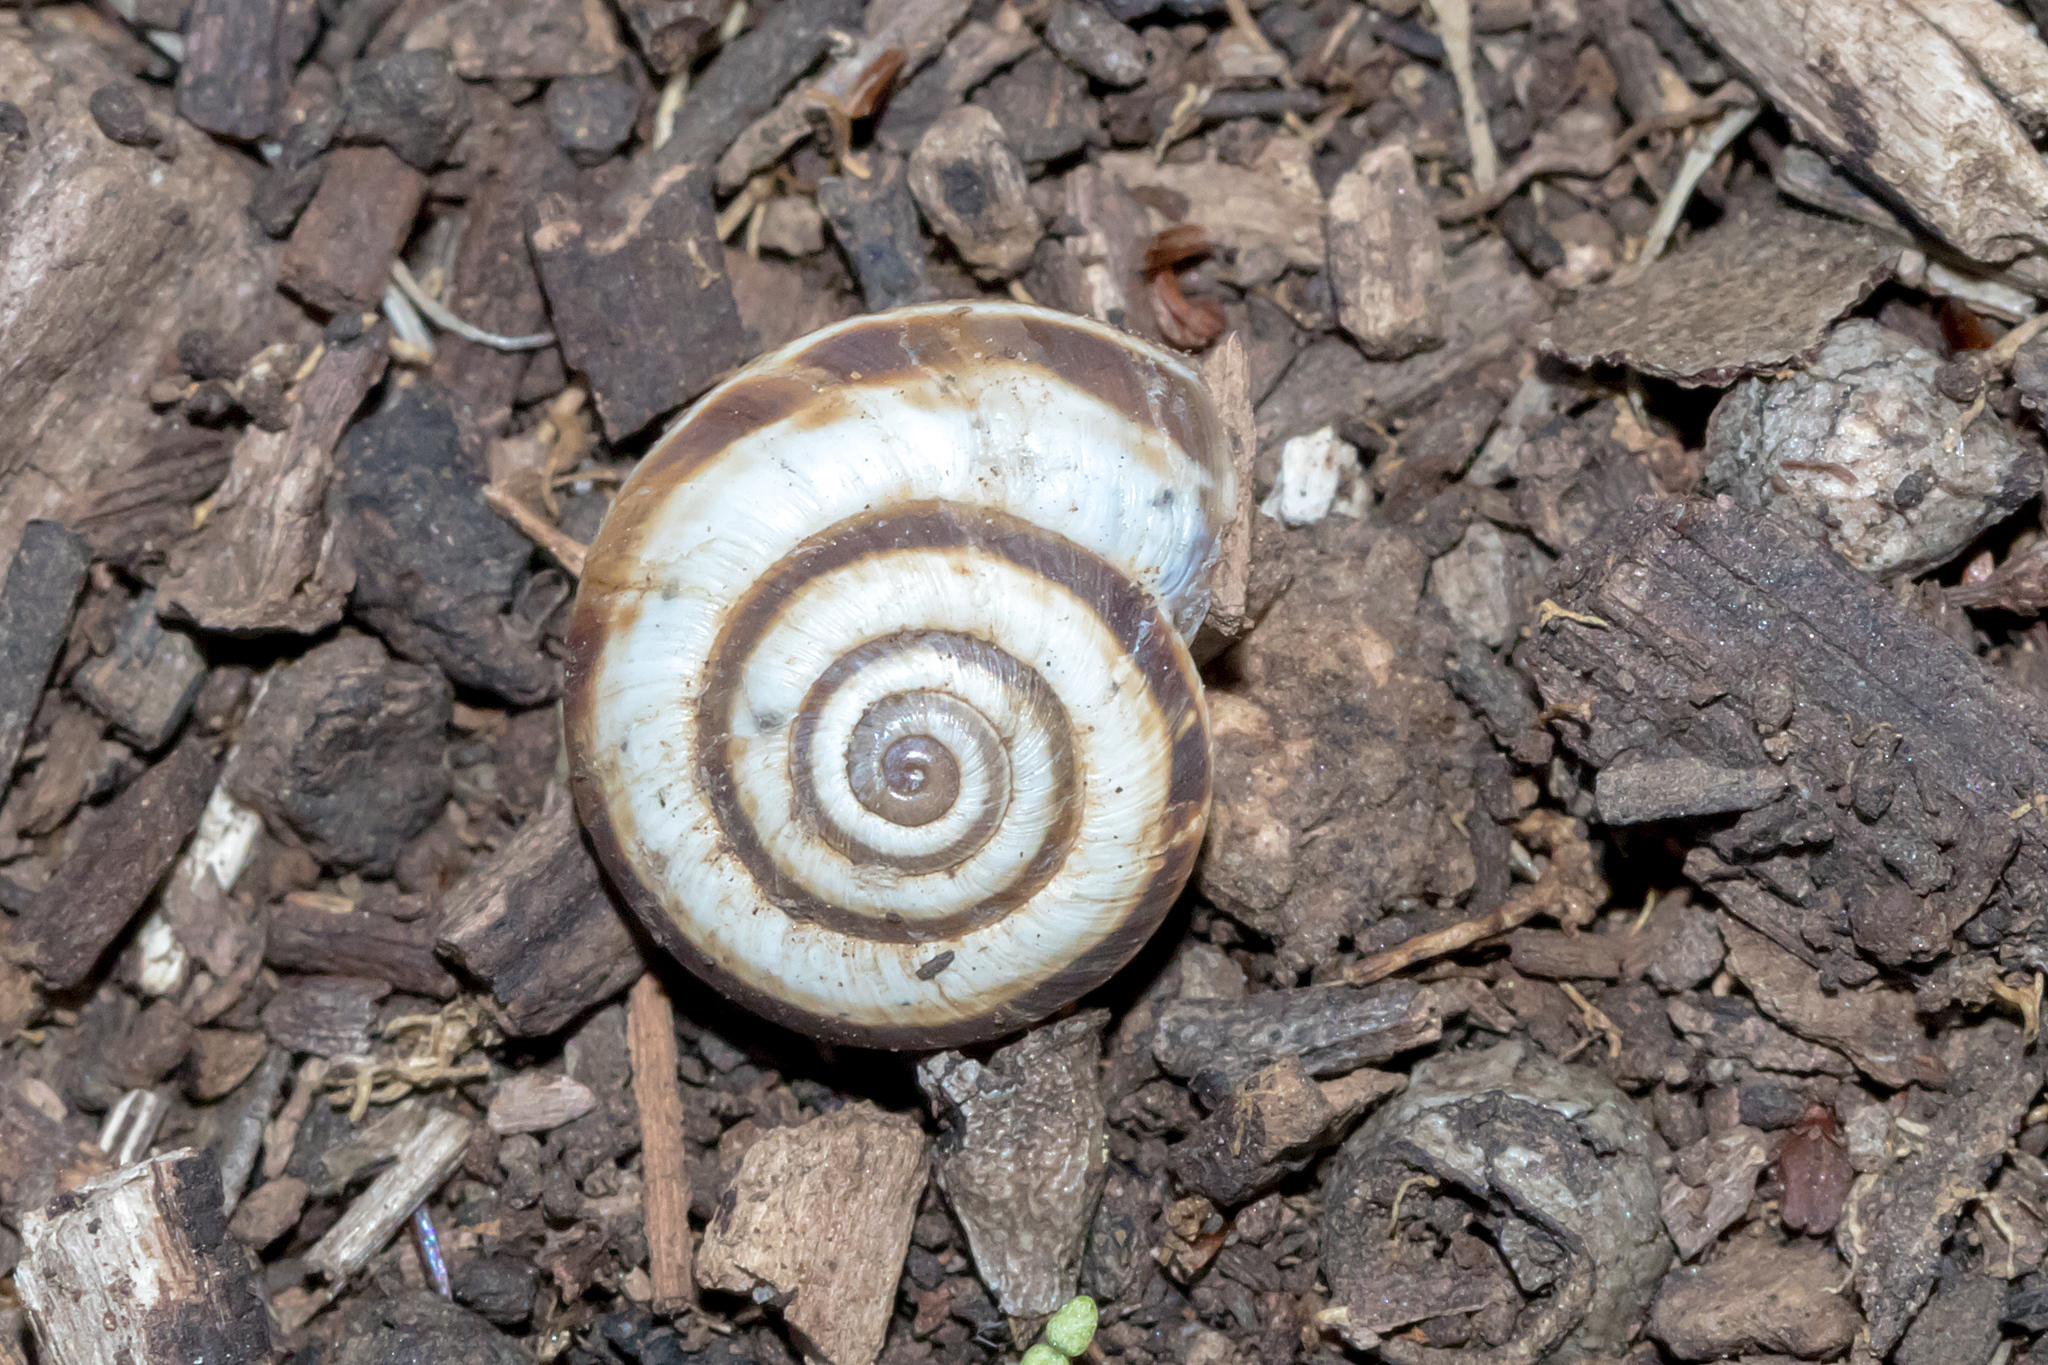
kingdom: Animalia
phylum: Mollusca
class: Gastropoda
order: Stylommatophora
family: Geomitridae
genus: Cernuella
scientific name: Cernuella virgata
